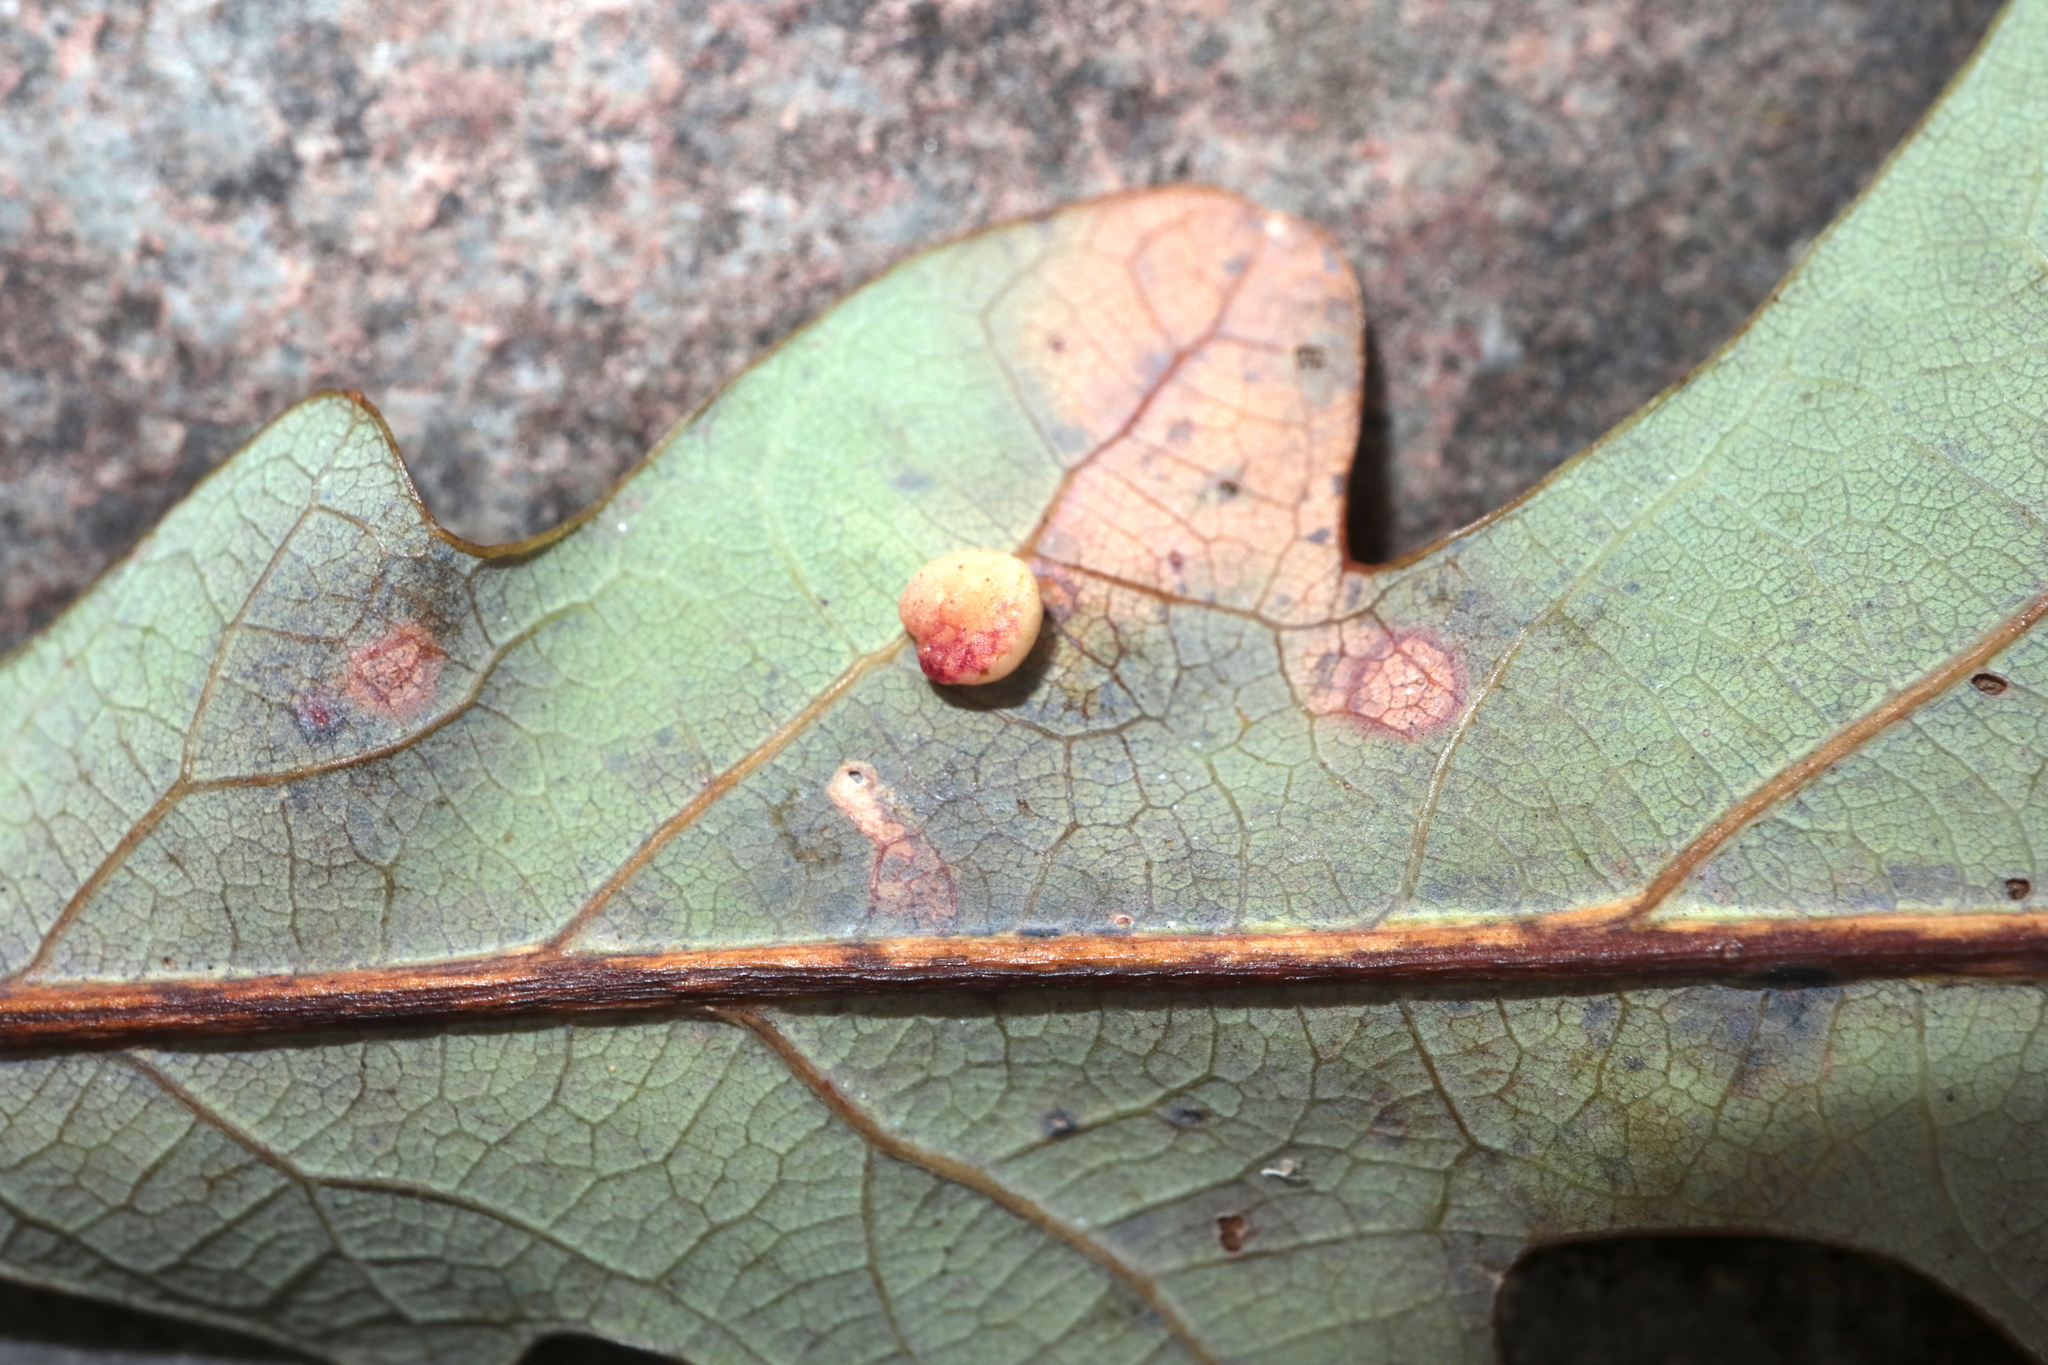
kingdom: Animalia
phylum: Arthropoda
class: Insecta
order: Hymenoptera
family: Cynipidae
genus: Phylloteras
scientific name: Phylloteras
